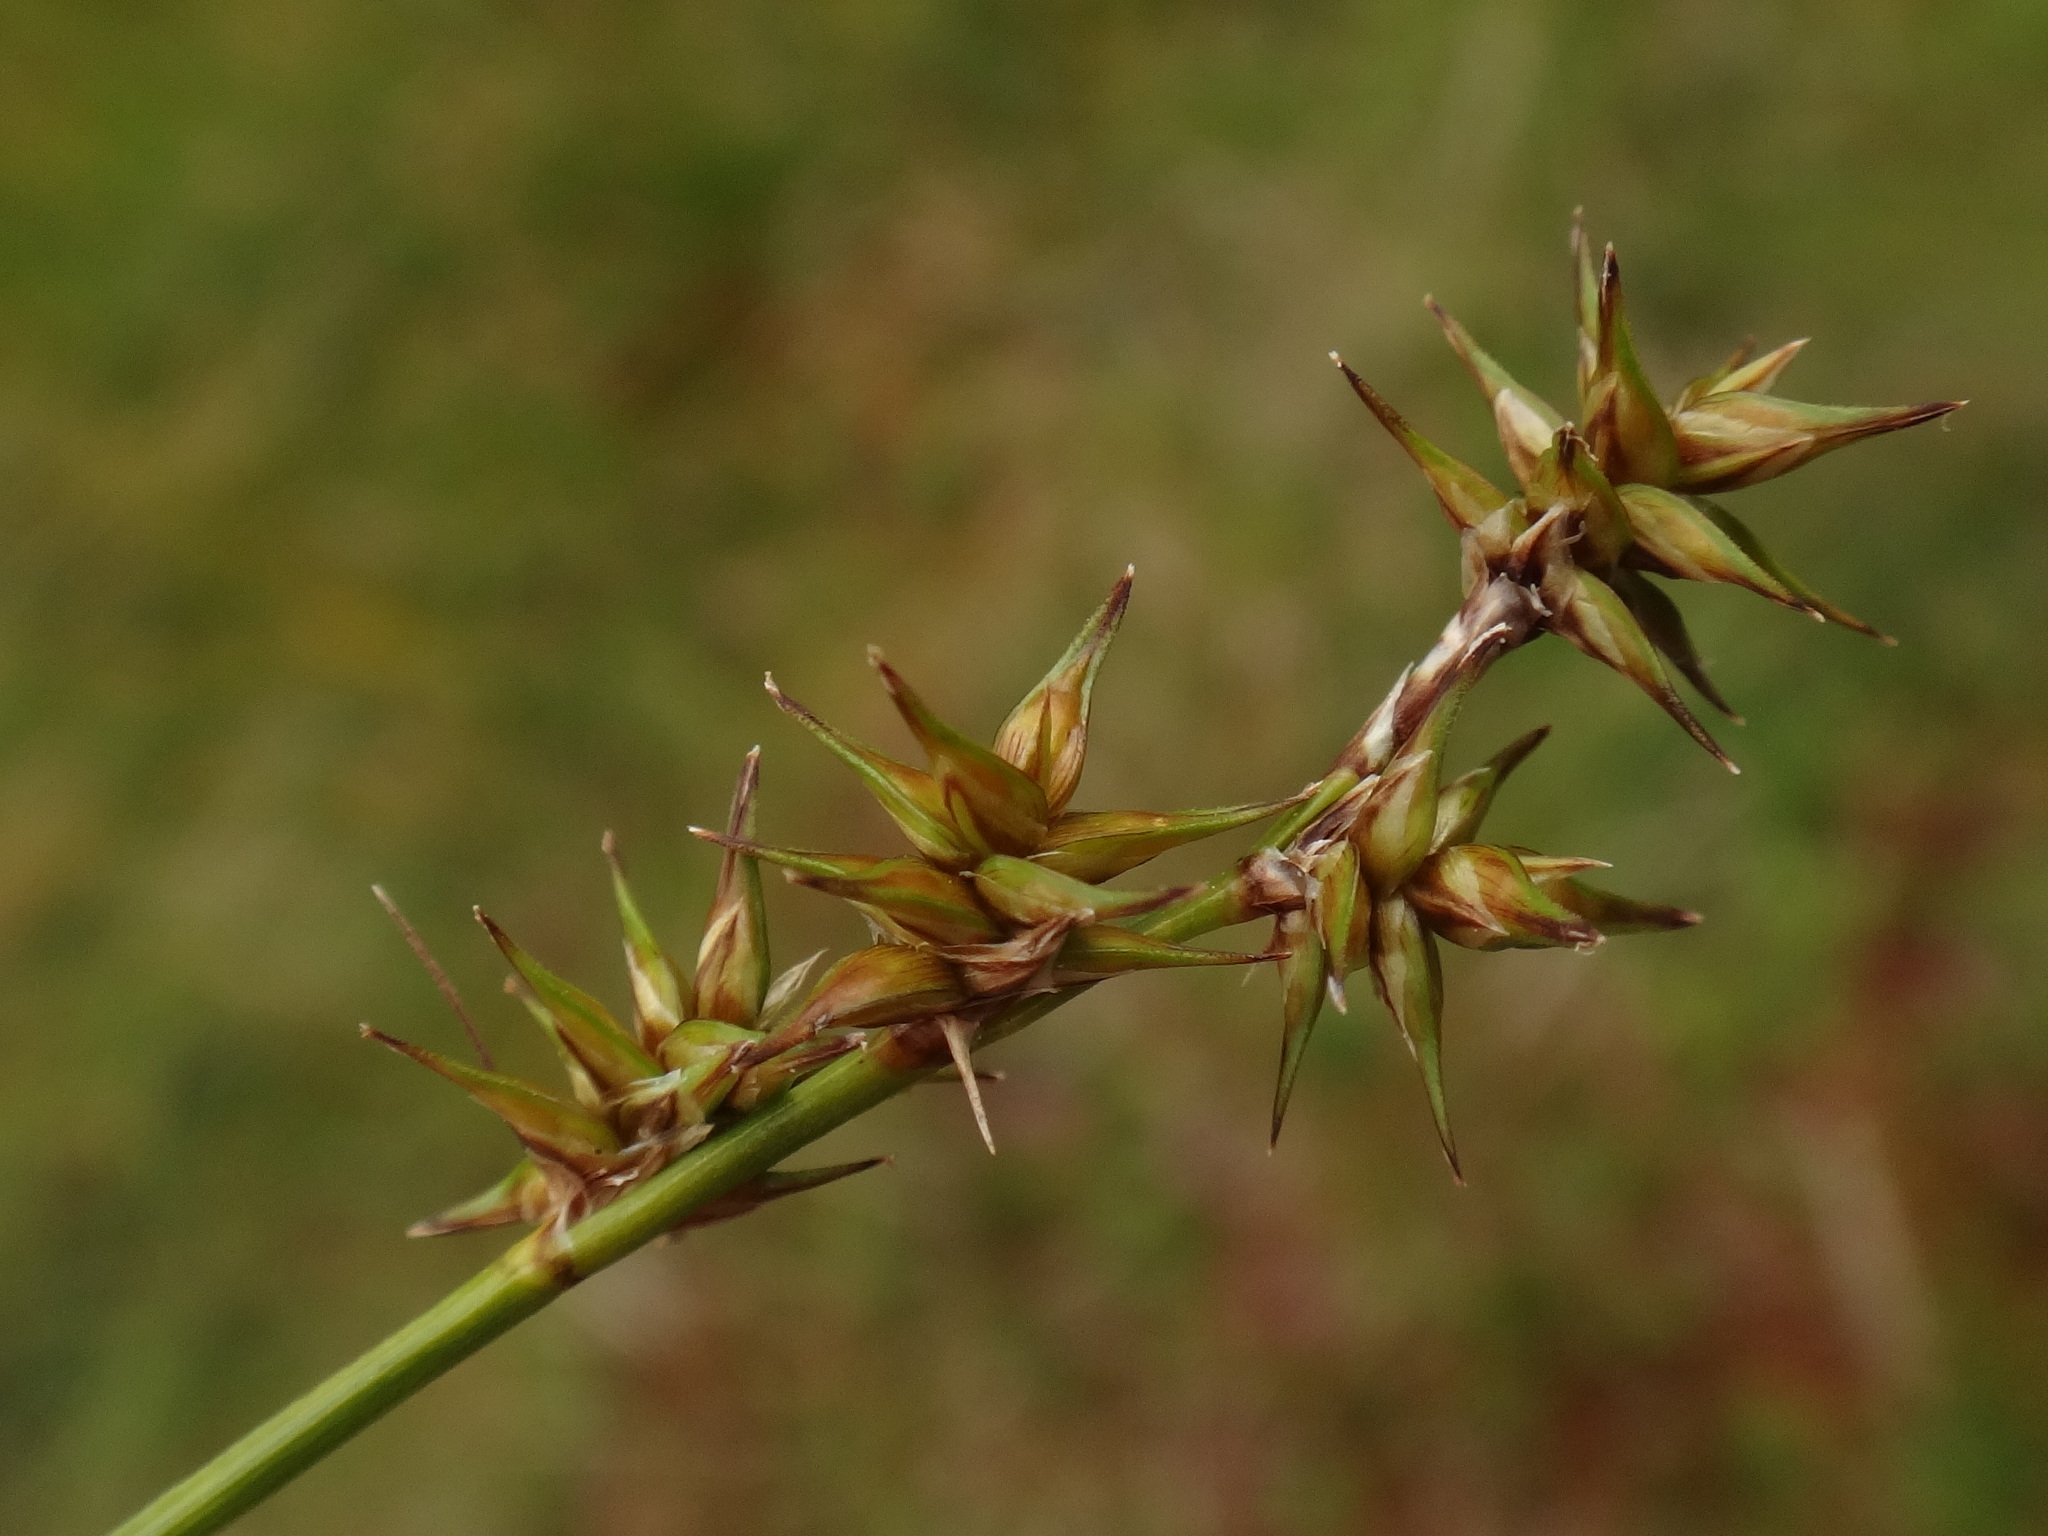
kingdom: Plantae
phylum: Tracheophyta
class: Liliopsida
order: Poales
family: Cyperaceae
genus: Carex
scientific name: Carex echinata
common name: Star sedge
